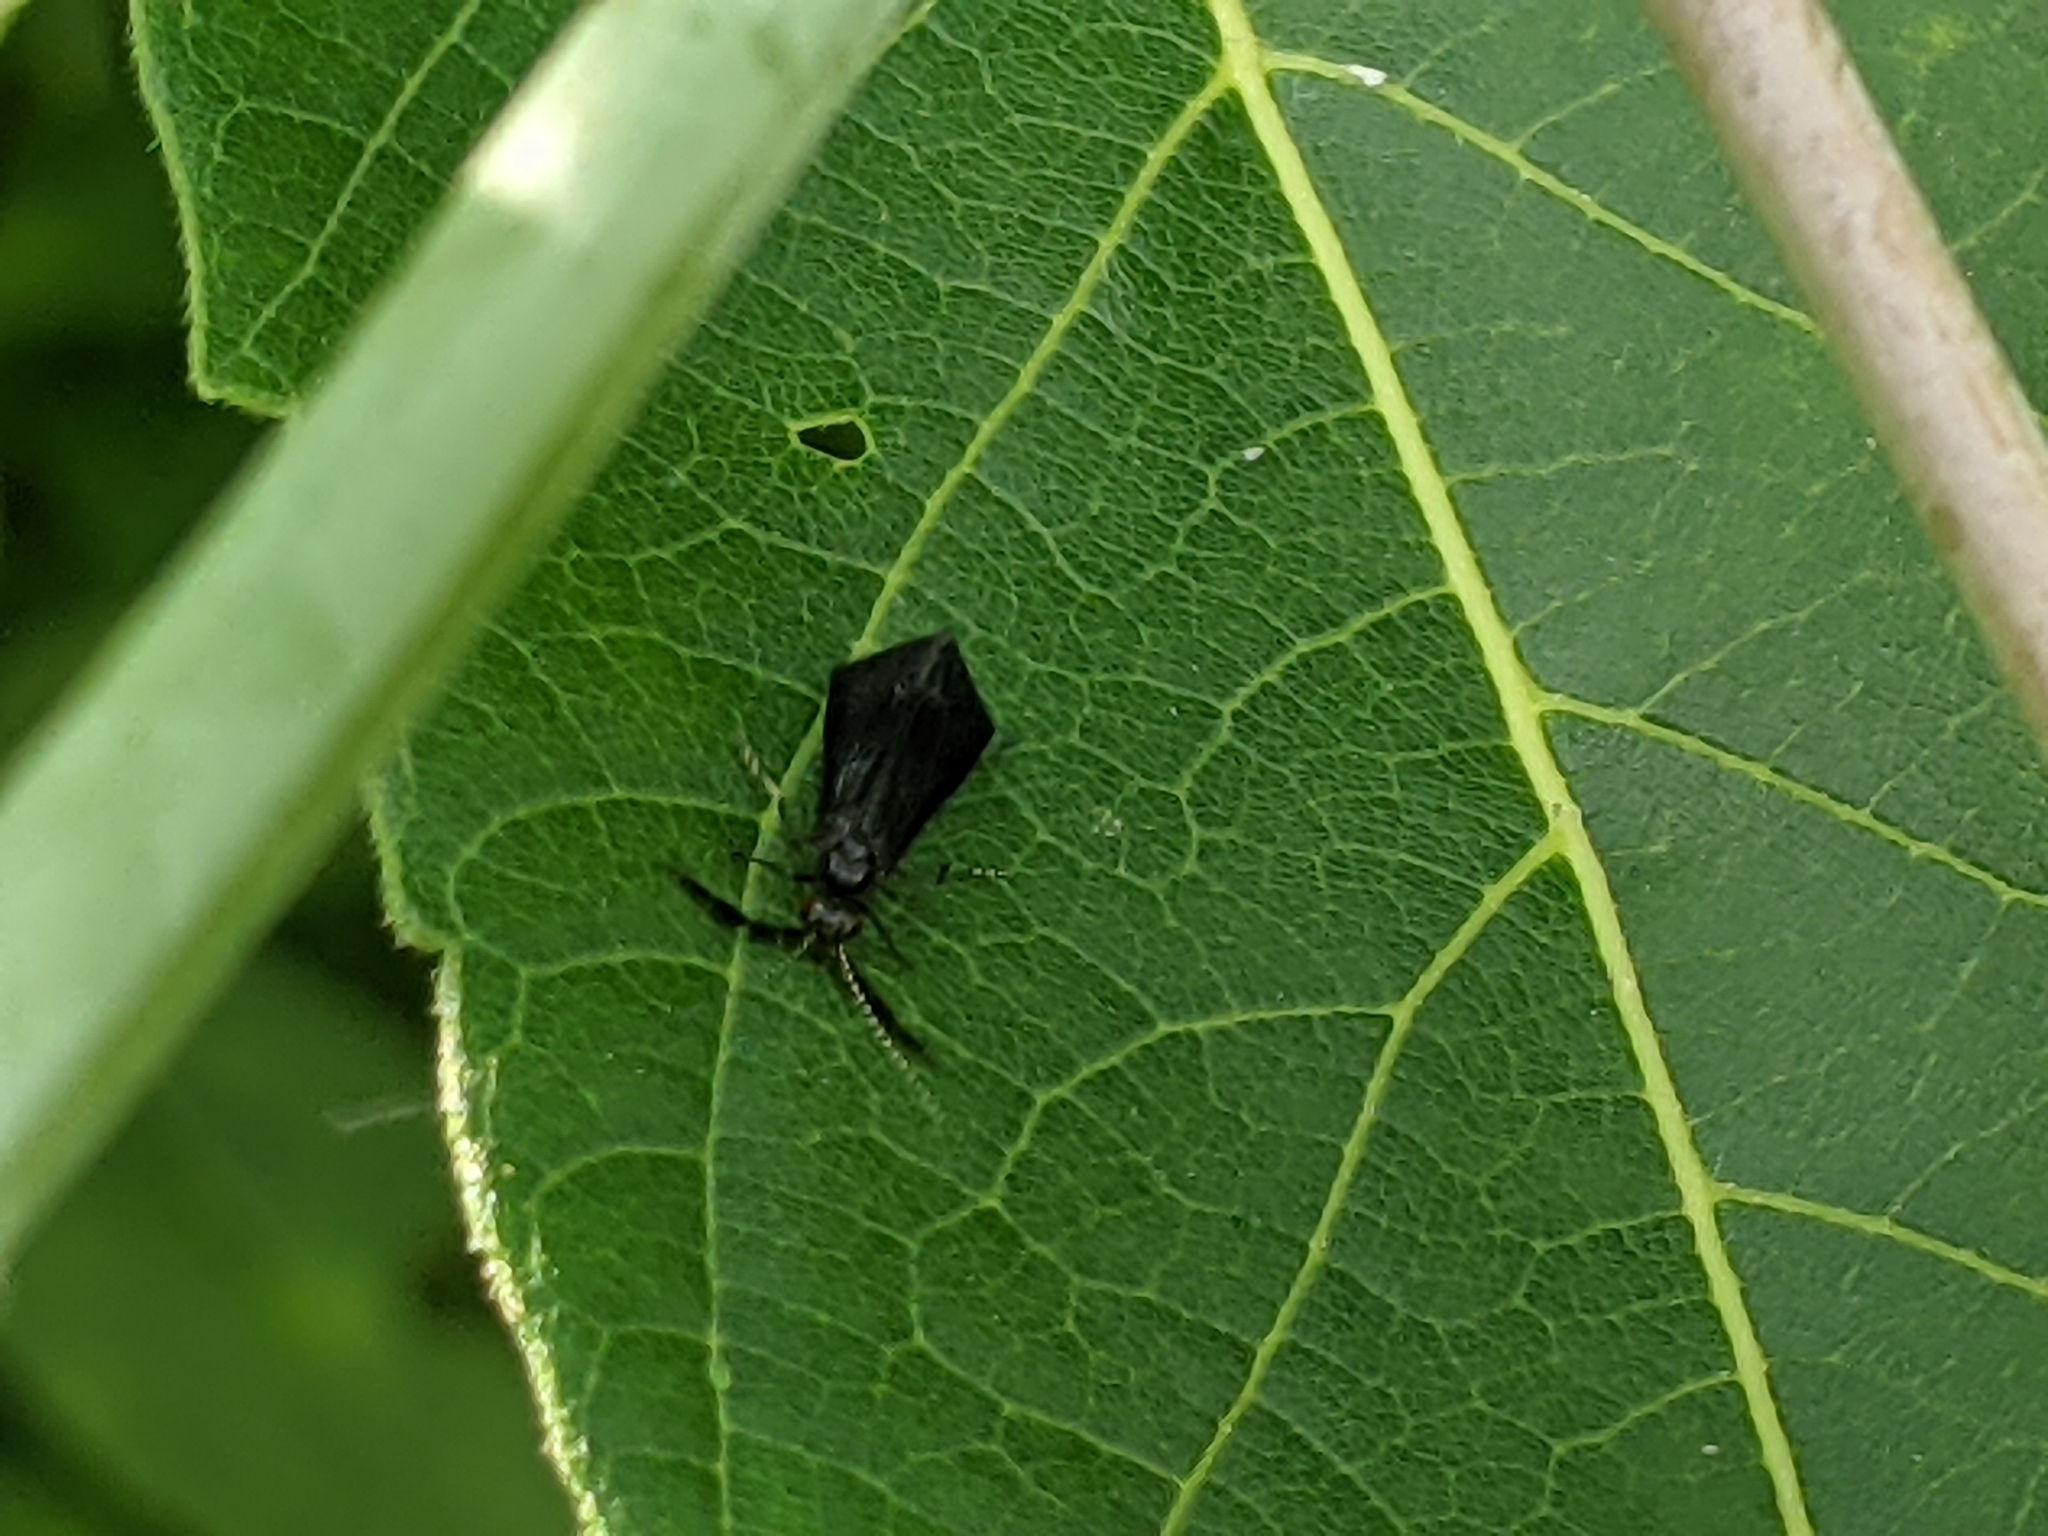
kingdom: Animalia
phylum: Arthropoda
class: Insecta
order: Trichoptera
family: Leptoceridae
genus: Mystacides
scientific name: Mystacides sepulchralis
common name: Black dancer caddisfly
